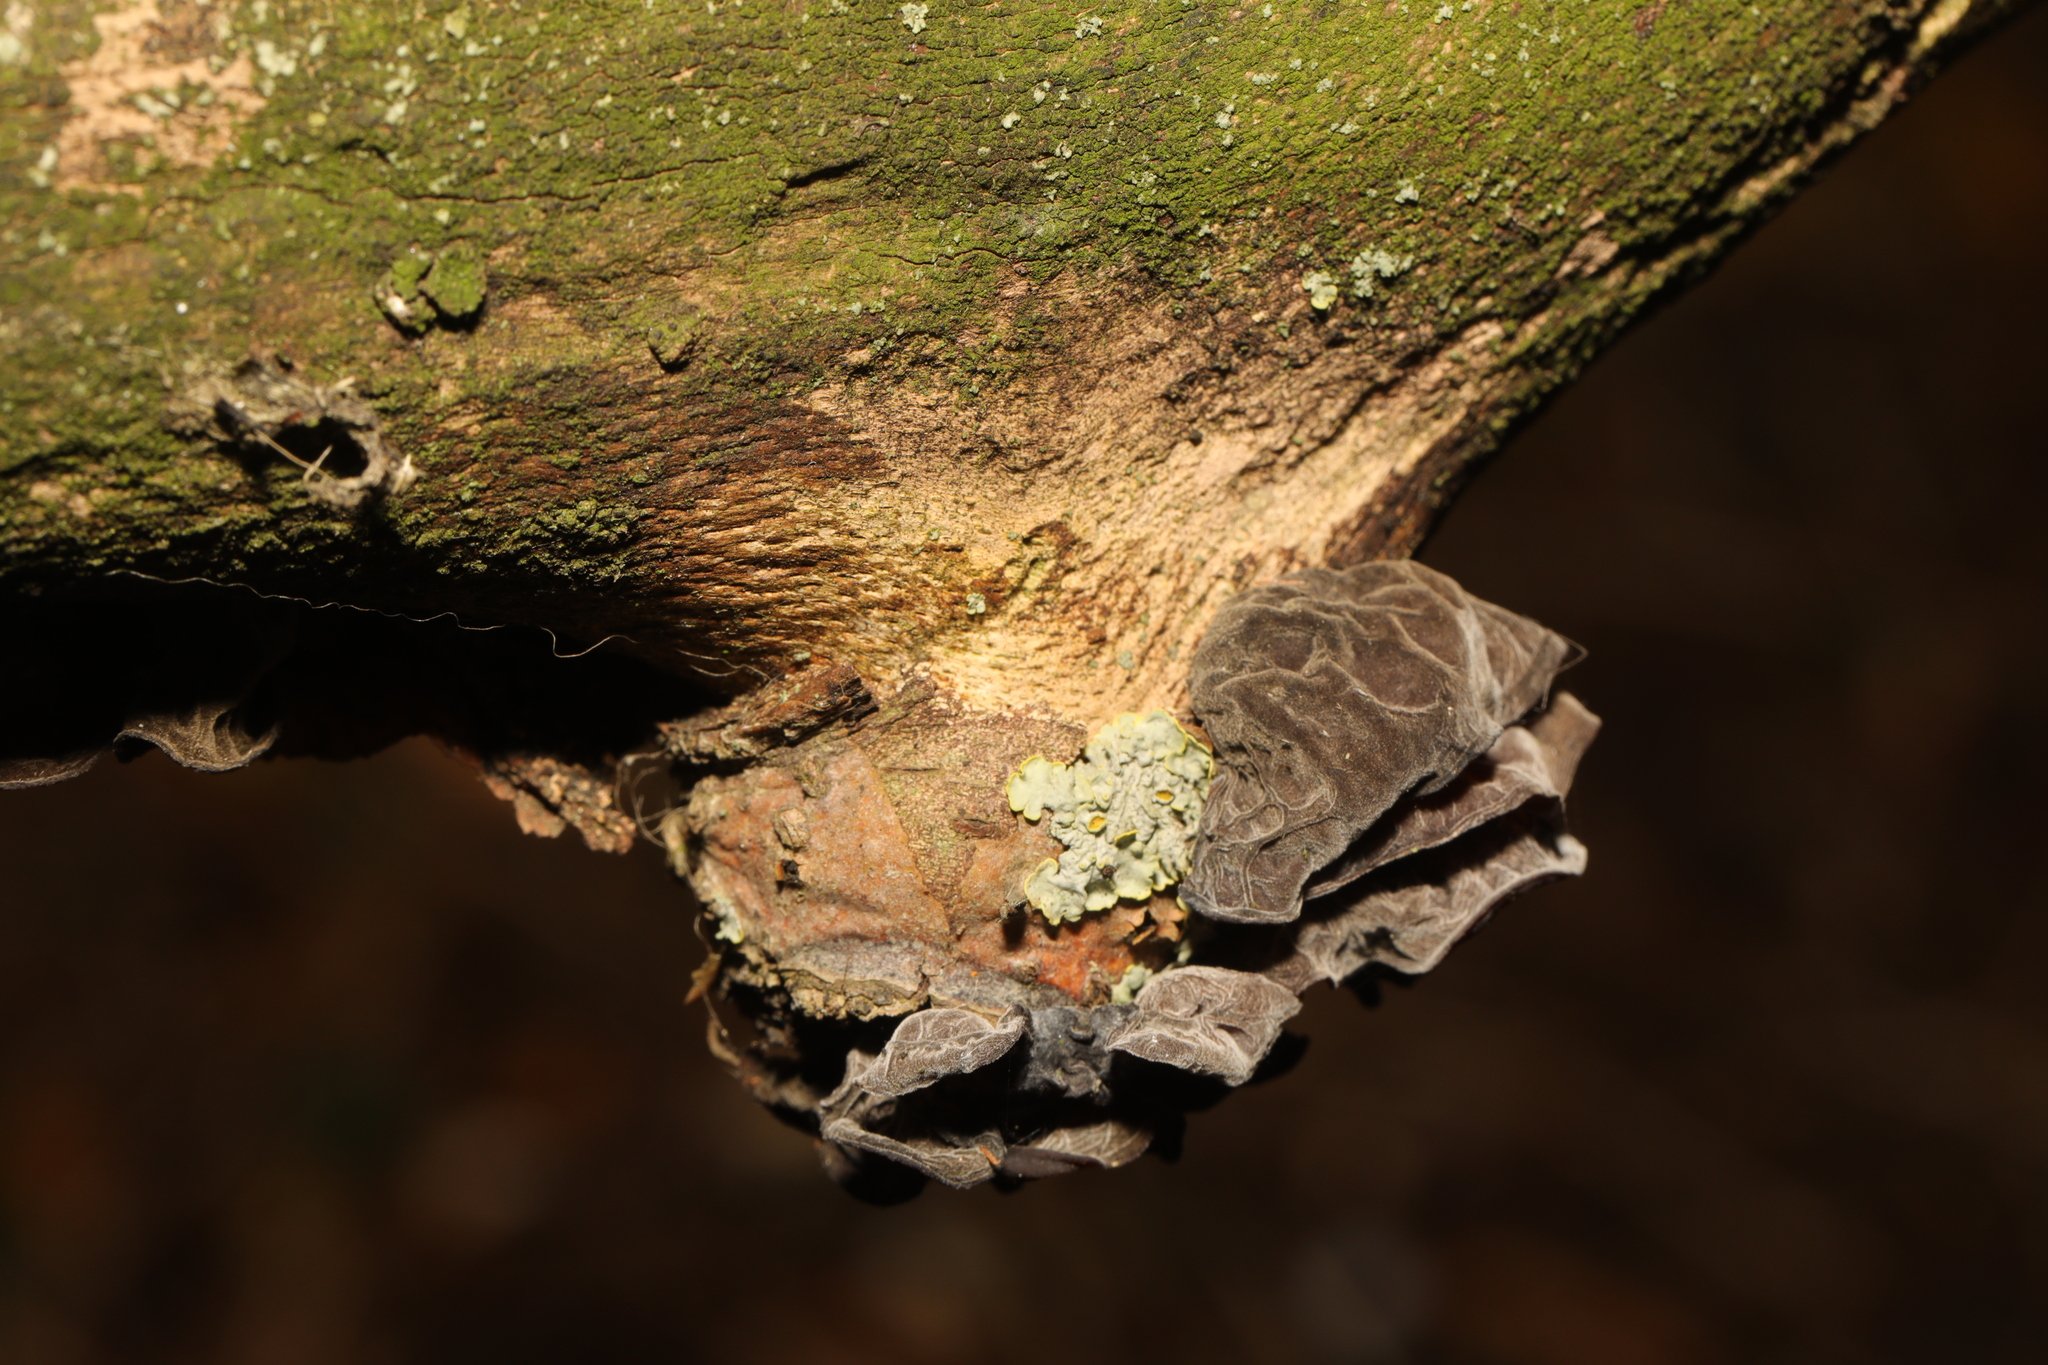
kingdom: Fungi
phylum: Ascomycota
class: Lecanoromycetes
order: Teloschistales
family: Teloschistaceae
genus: Xanthoria
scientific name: Xanthoria parietina
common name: Common orange lichen
